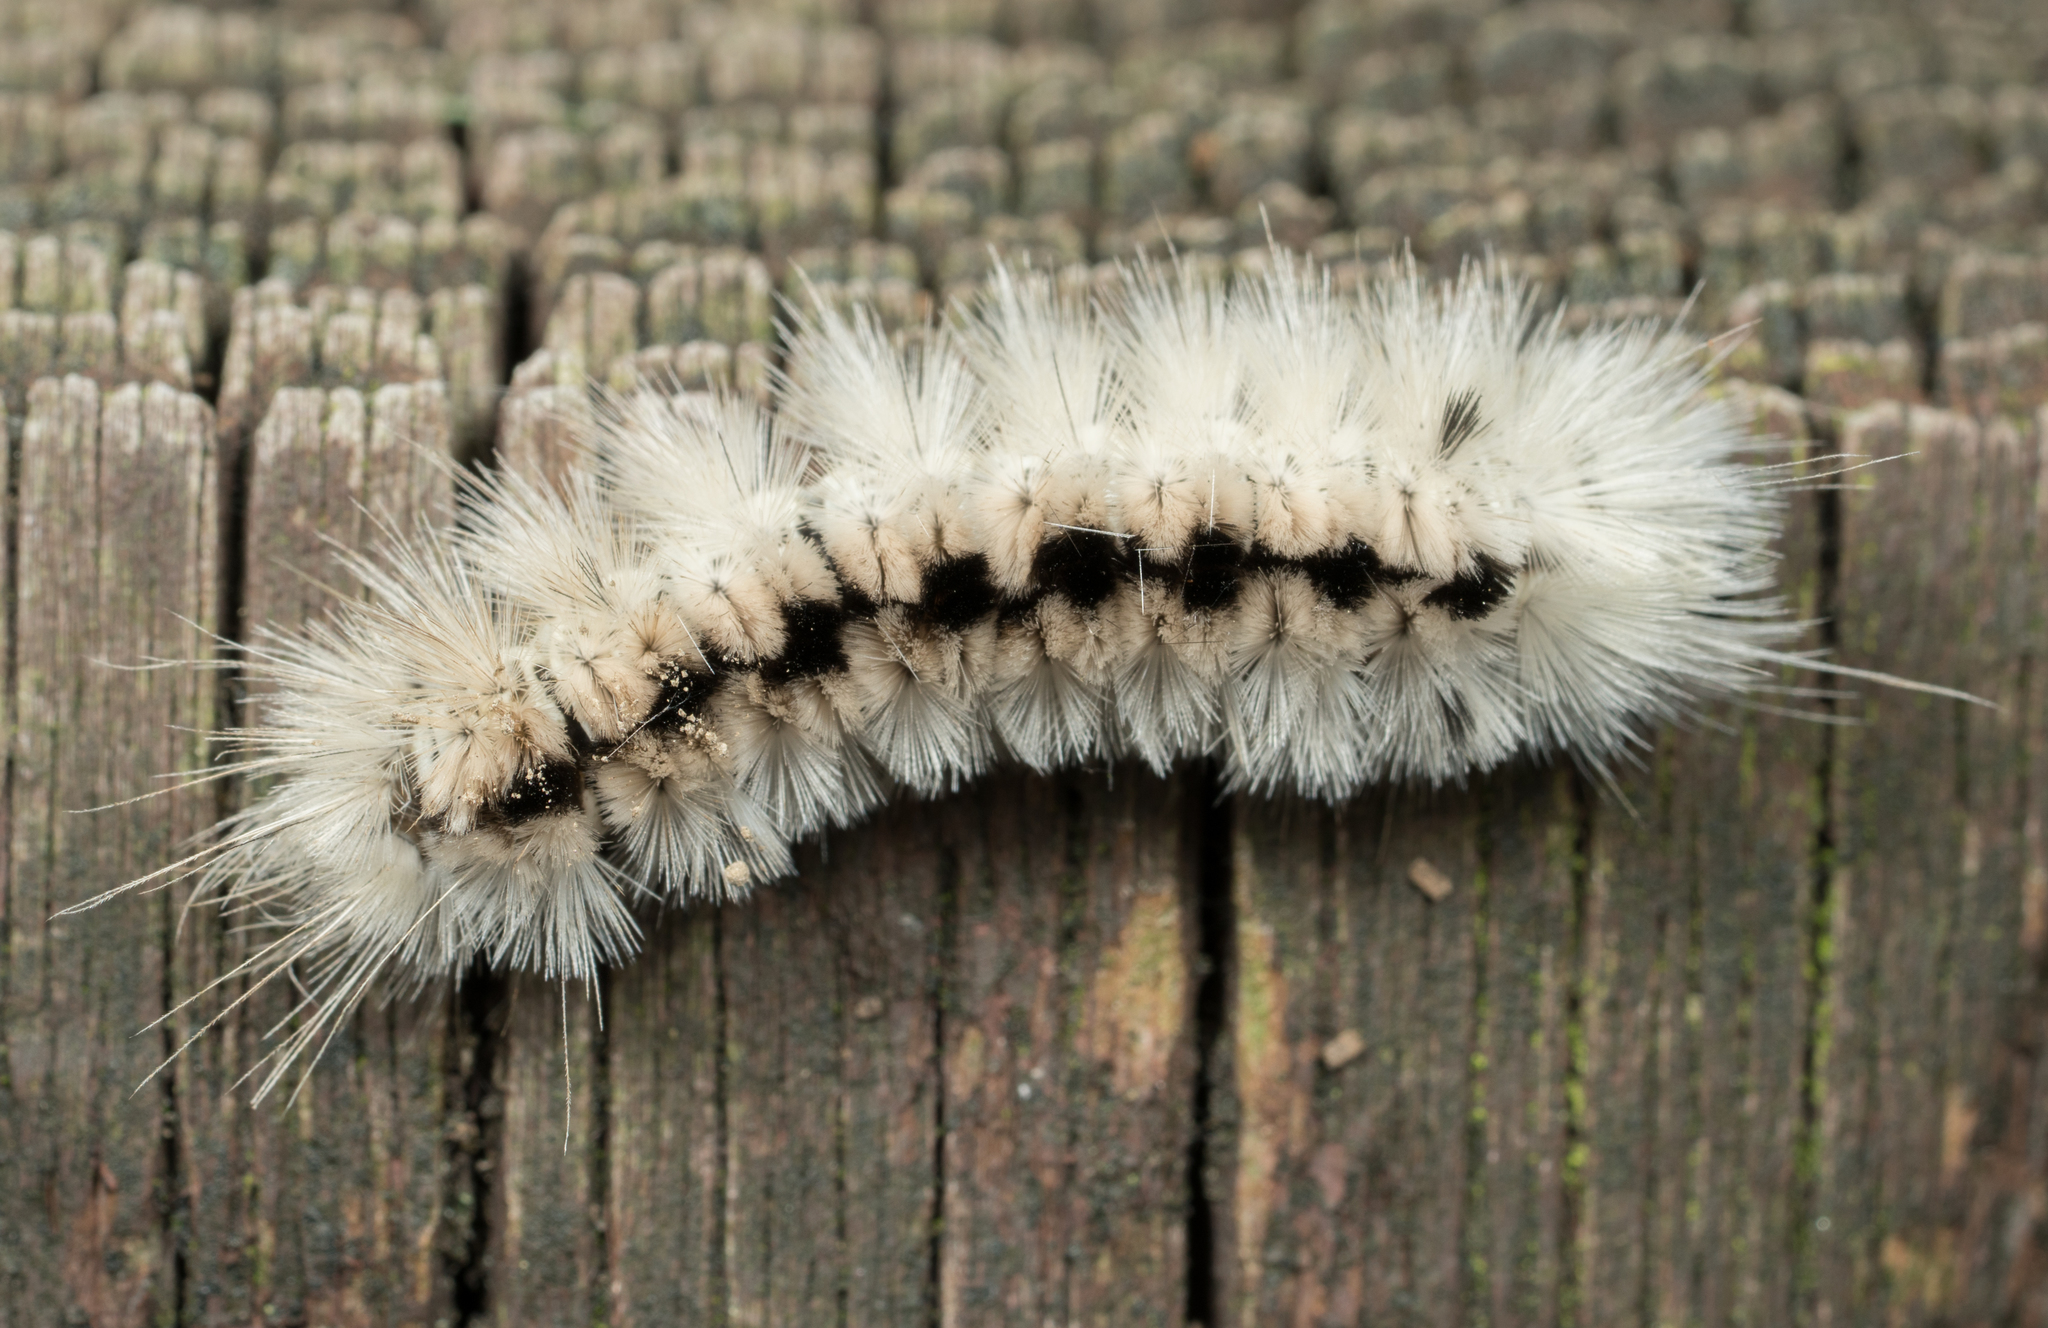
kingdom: Animalia
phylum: Arthropoda
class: Insecta
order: Lepidoptera
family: Erebidae
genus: Lophocampa
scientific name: Lophocampa caryae
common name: Hickory tussock moth
